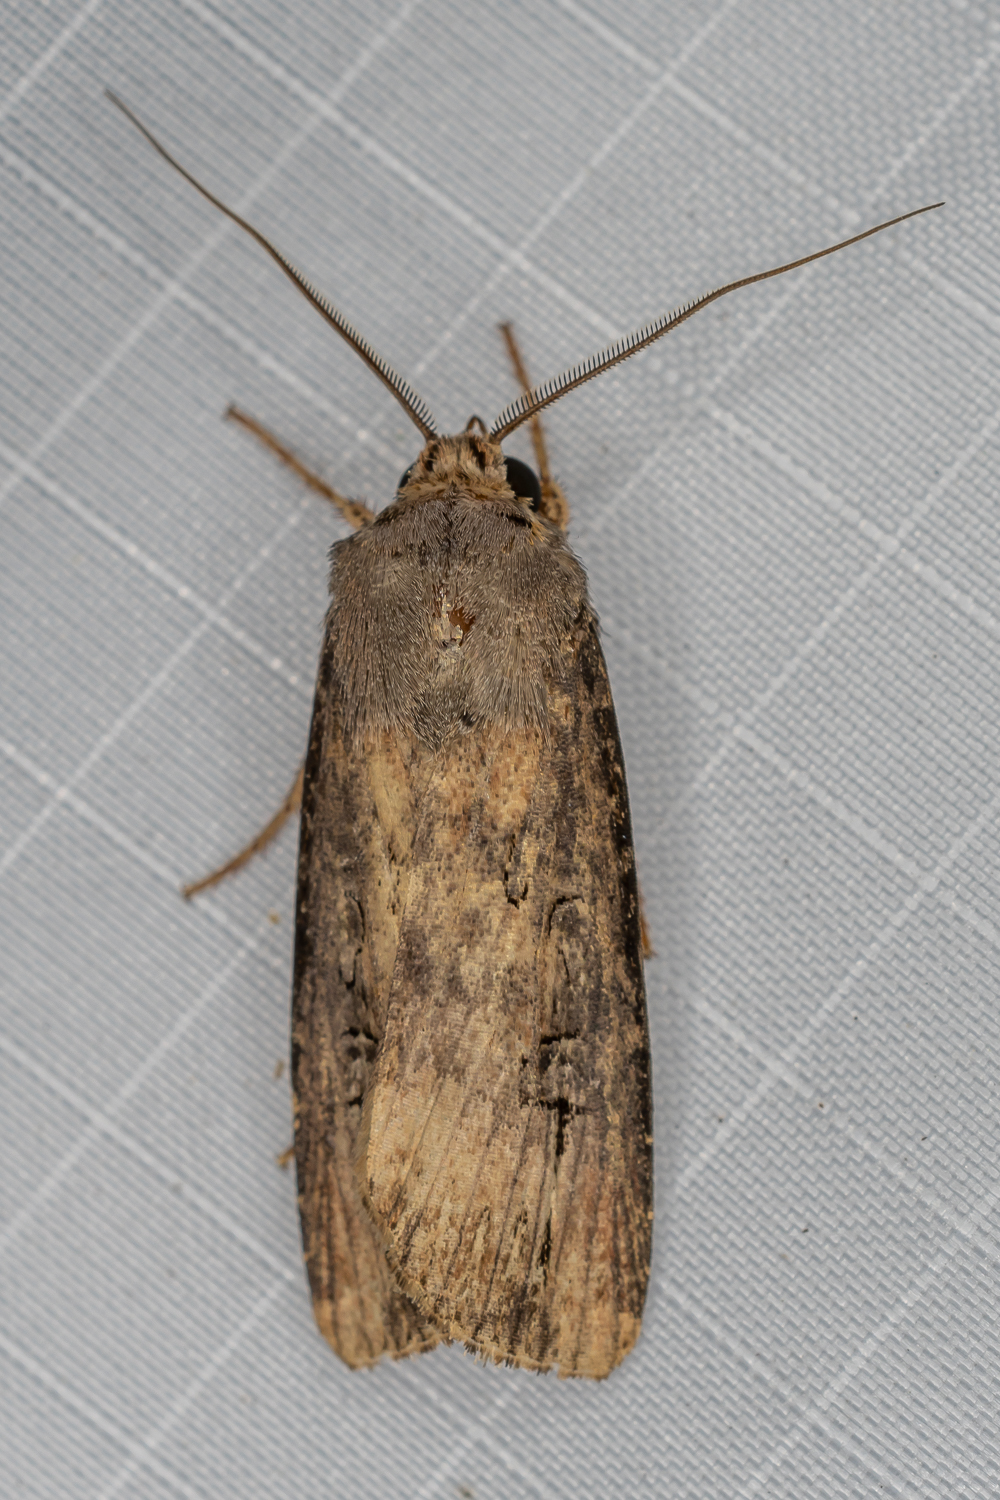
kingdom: Animalia
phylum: Arthropoda
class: Insecta
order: Lepidoptera
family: Noctuidae
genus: Agrotis
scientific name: Agrotis ipsilon
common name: Dark sword-grass
